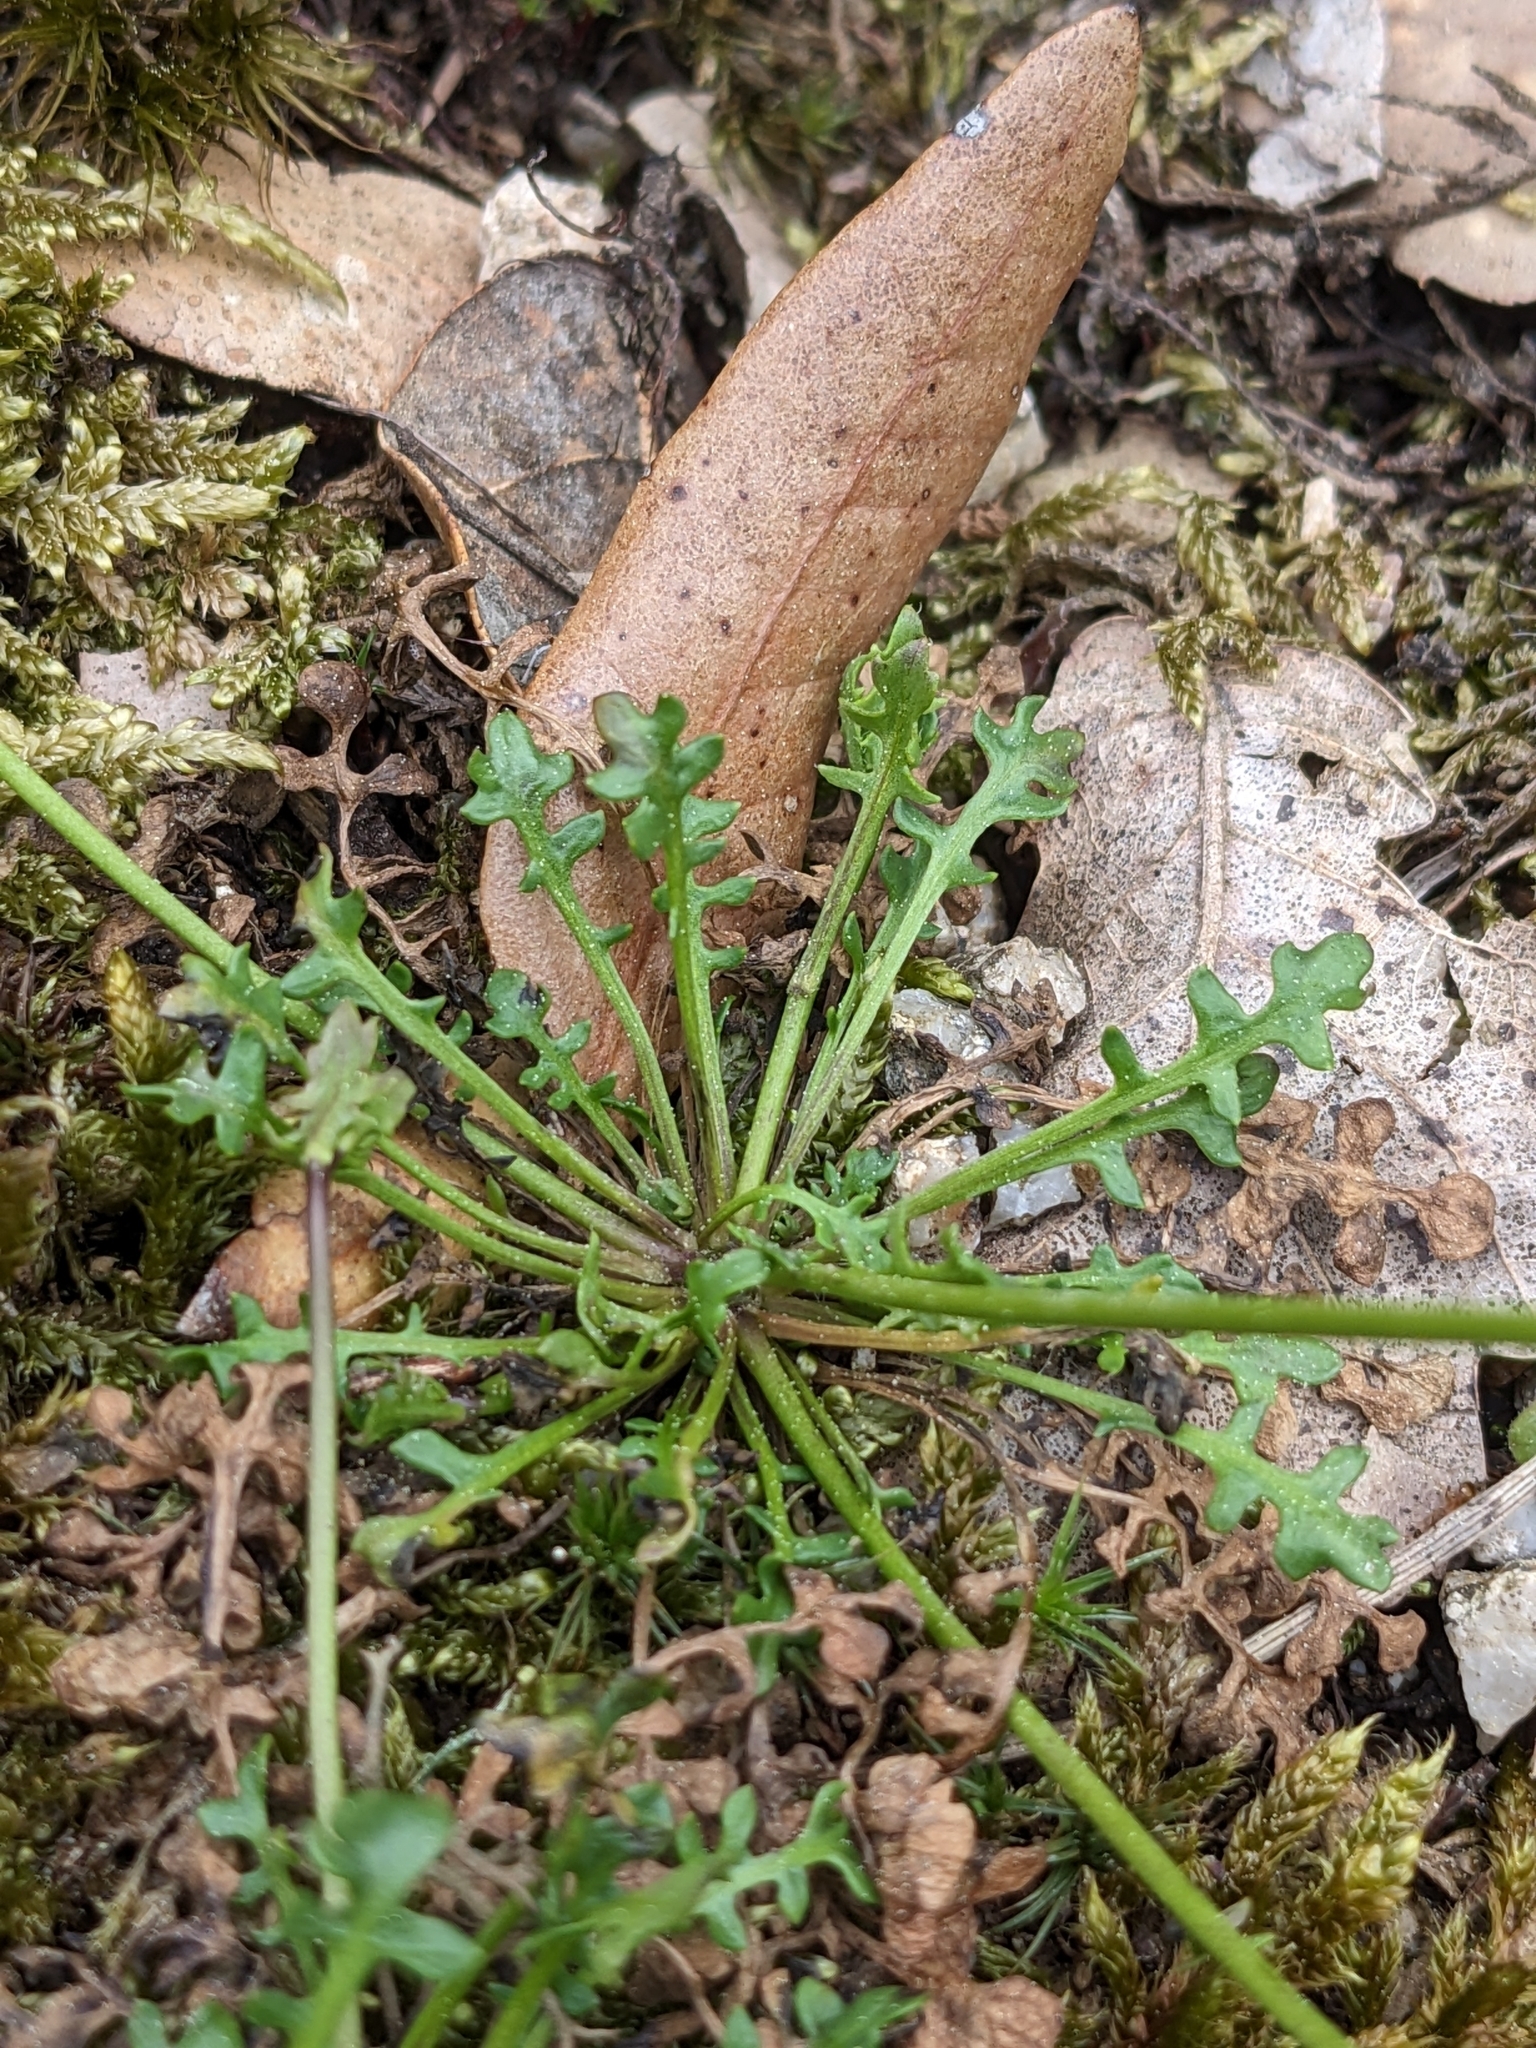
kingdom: Plantae
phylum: Tracheophyta
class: Magnoliopsida
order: Brassicales
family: Brassicaceae
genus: Teesdalia
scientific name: Teesdalia nudicaulis
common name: Shepherd's cress
